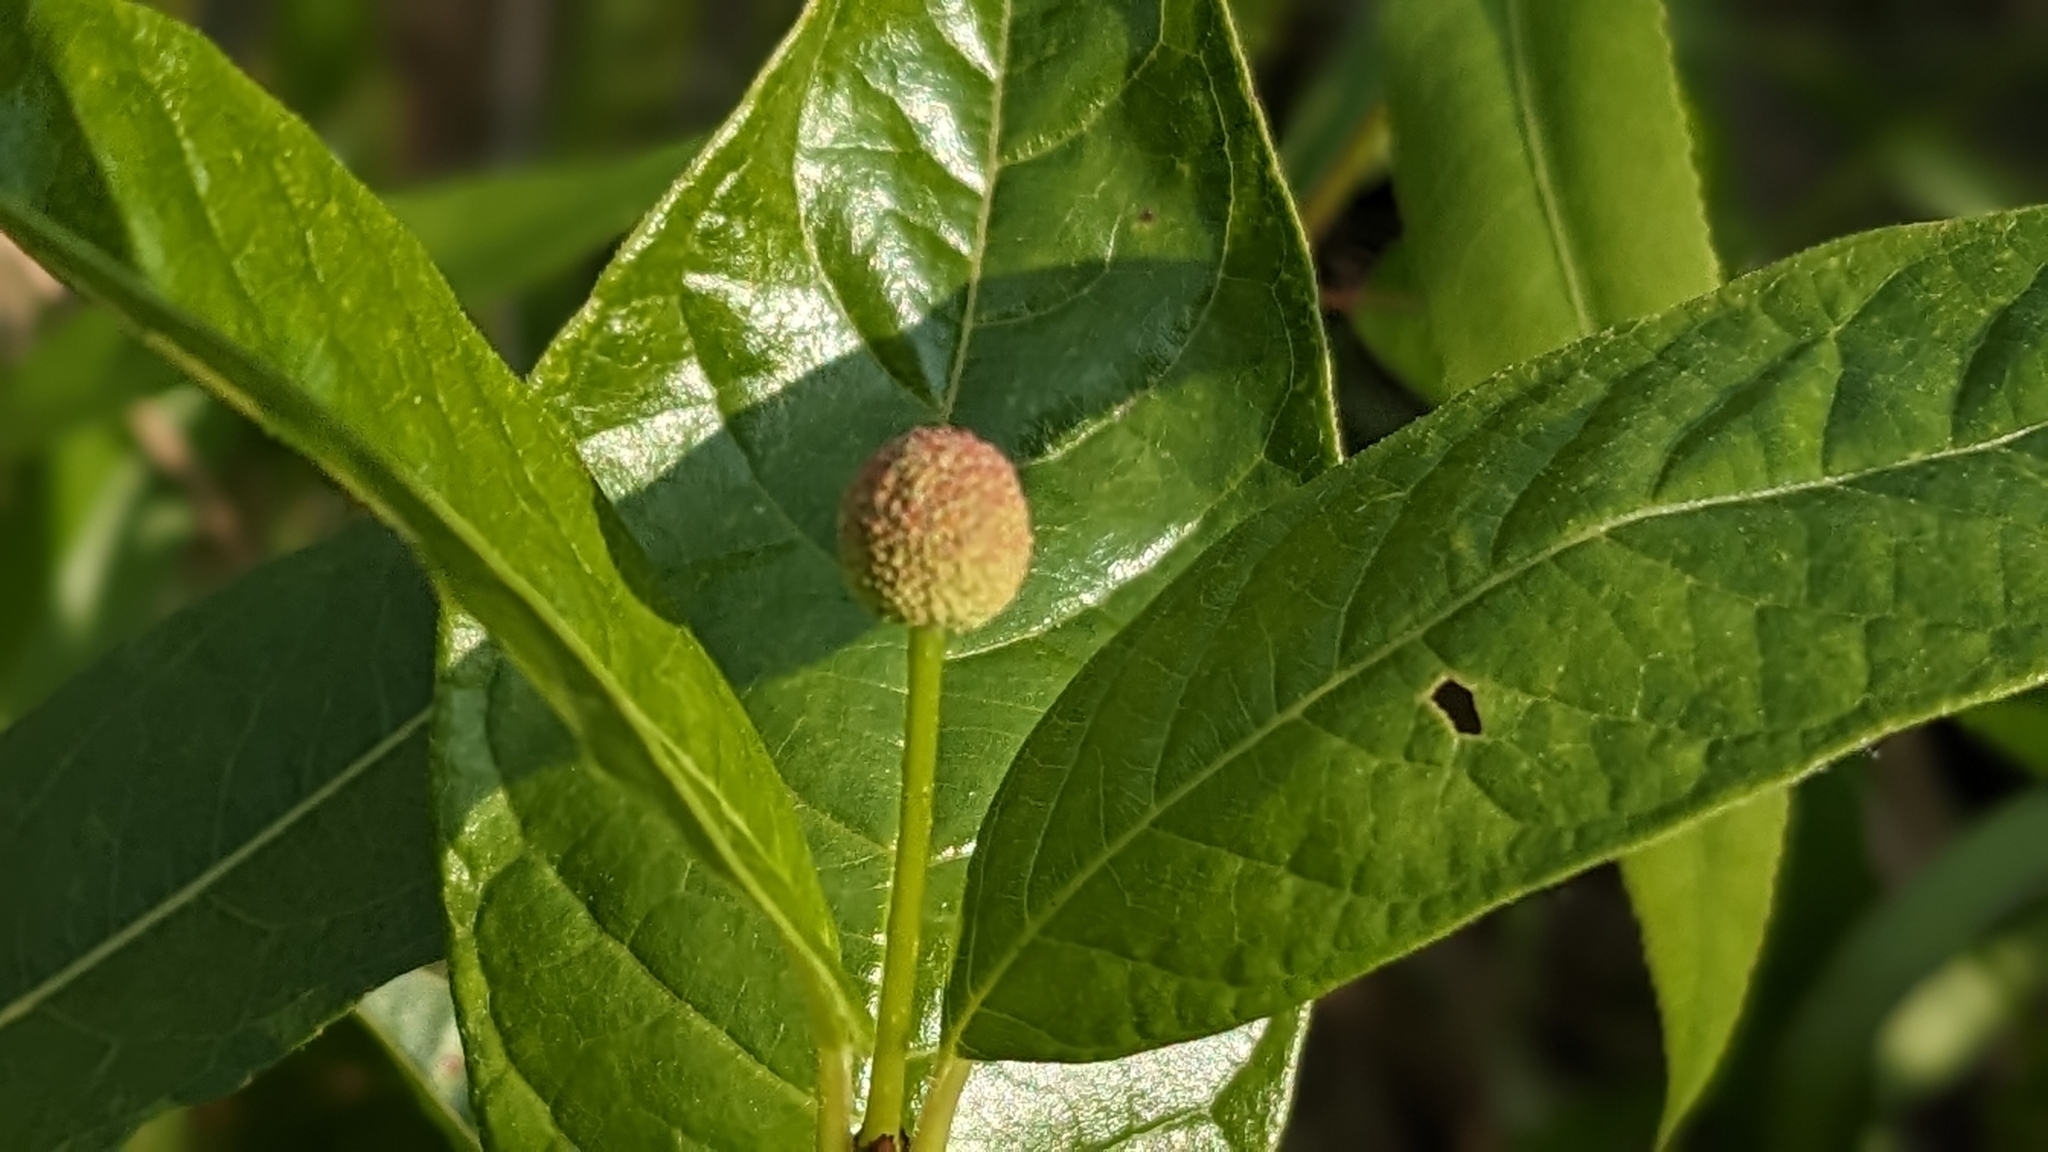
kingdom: Plantae
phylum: Tracheophyta
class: Magnoliopsida
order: Gentianales
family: Rubiaceae
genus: Cephalanthus
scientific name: Cephalanthus occidentalis
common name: Button-willow
